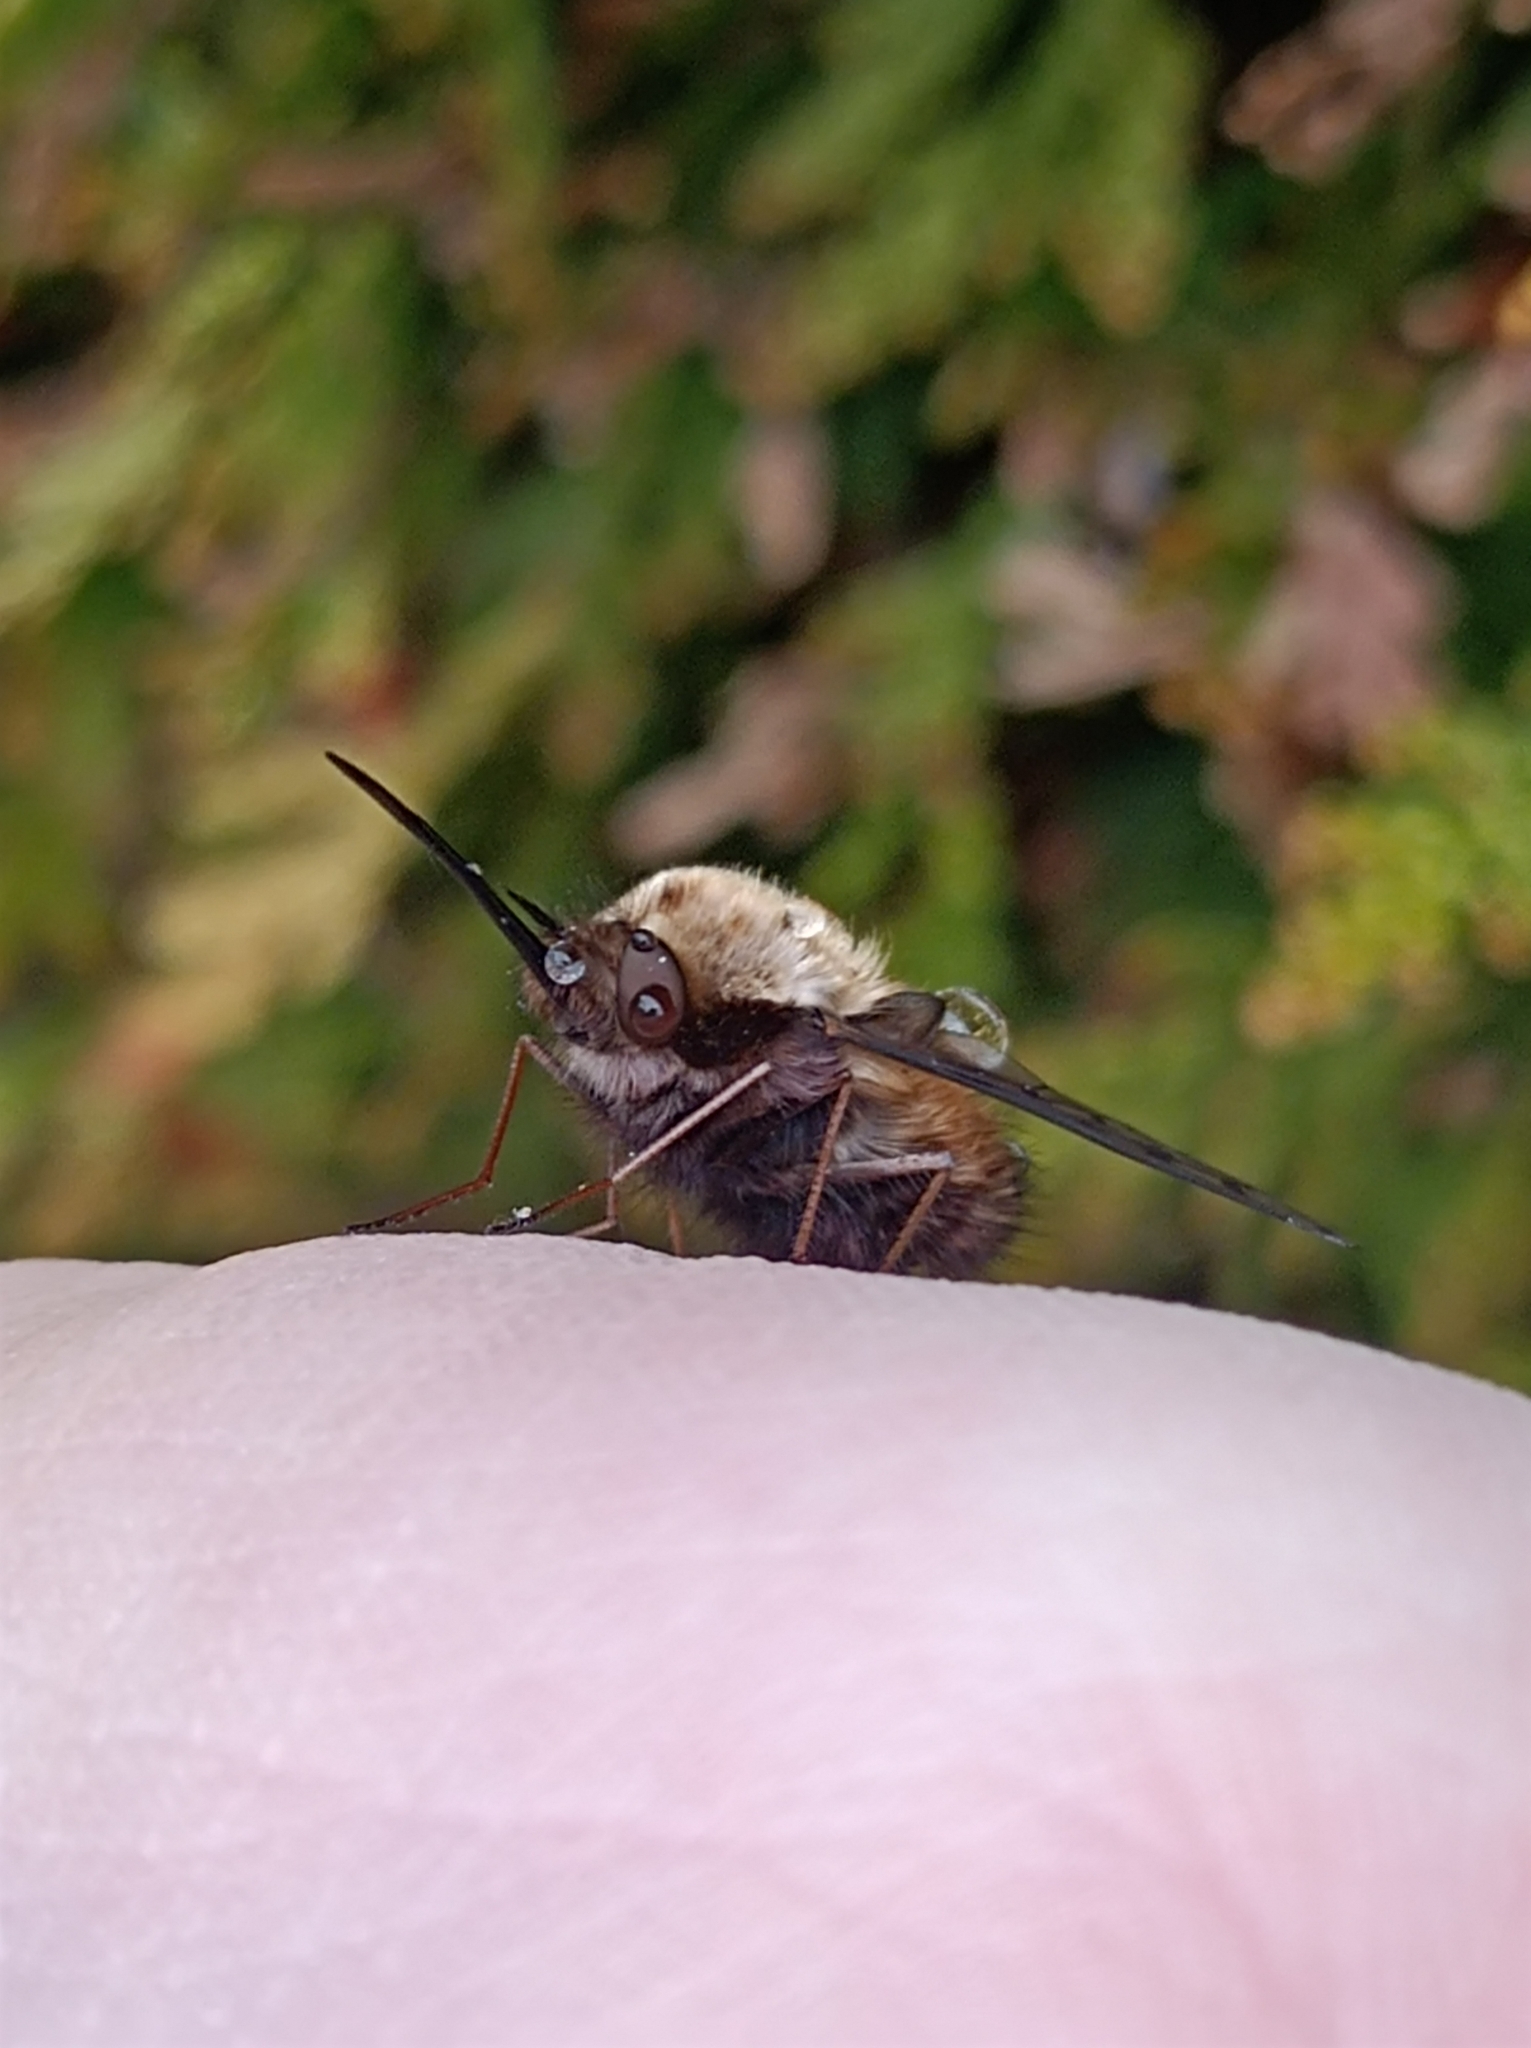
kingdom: Animalia
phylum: Arthropoda
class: Insecta
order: Diptera
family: Bombyliidae
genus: Bombylius
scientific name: Bombylius discolor
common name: Dotted bee-fly
